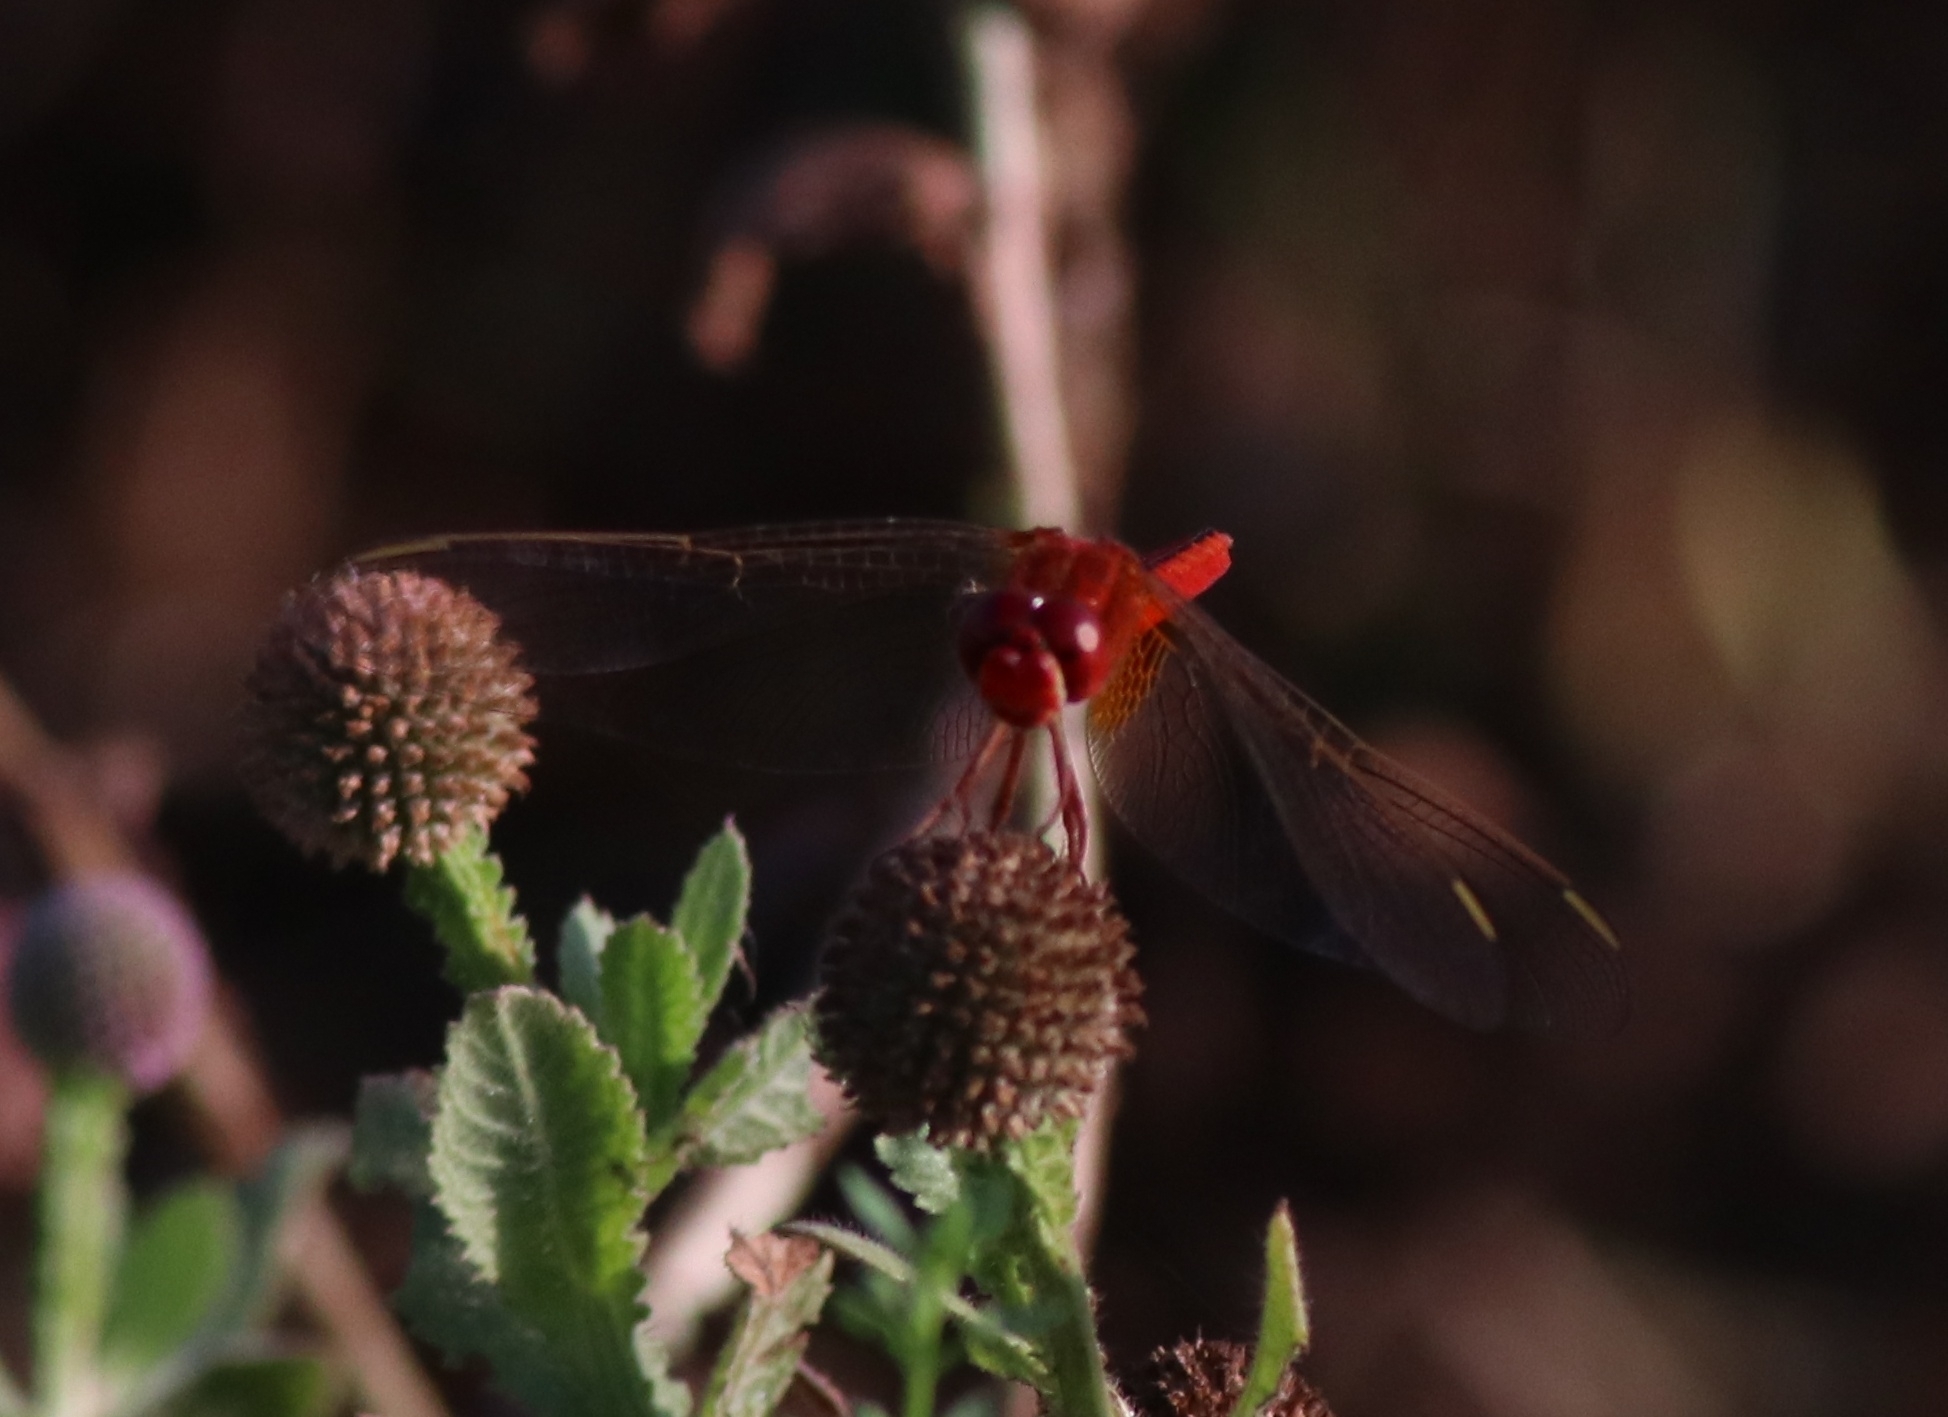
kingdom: Animalia
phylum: Arthropoda
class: Insecta
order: Odonata
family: Libellulidae
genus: Crocothemis
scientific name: Crocothemis servilia
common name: Scarlet skimmer
